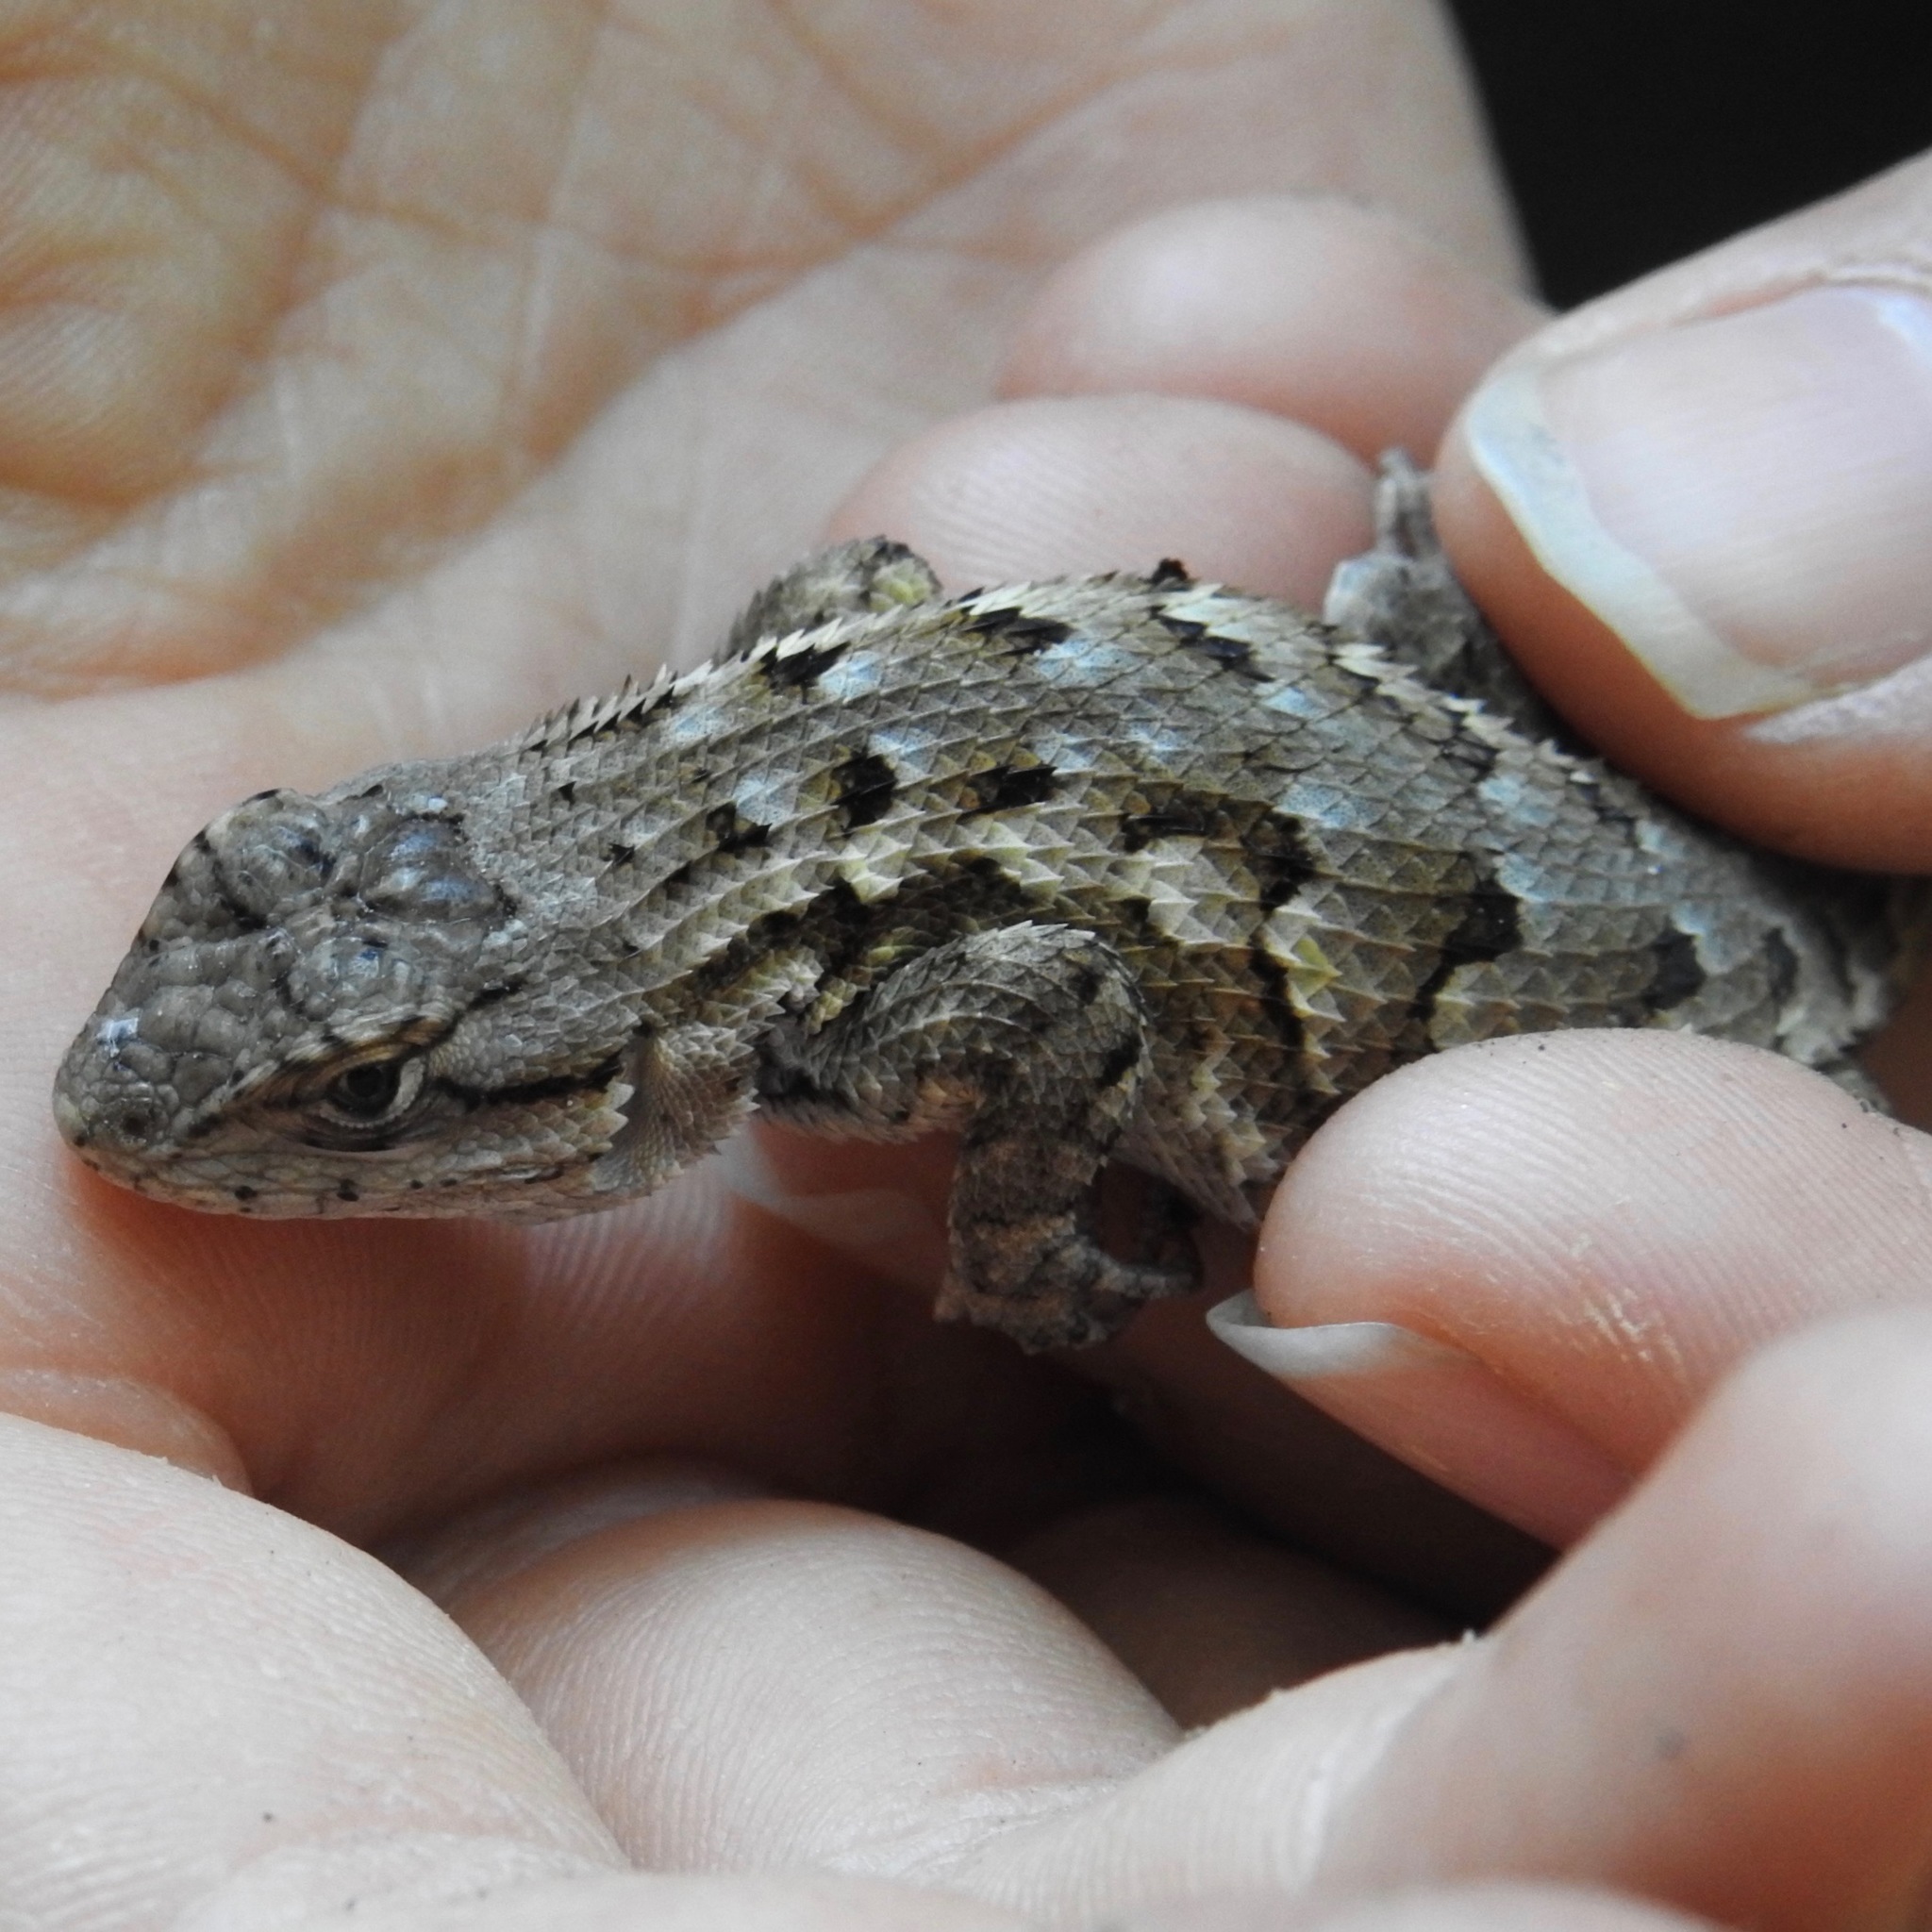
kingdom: Animalia
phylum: Chordata
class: Squamata
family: Phrynosomatidae
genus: Sceloporus
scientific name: Sceloporus occidentalis
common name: Western fence lizard
